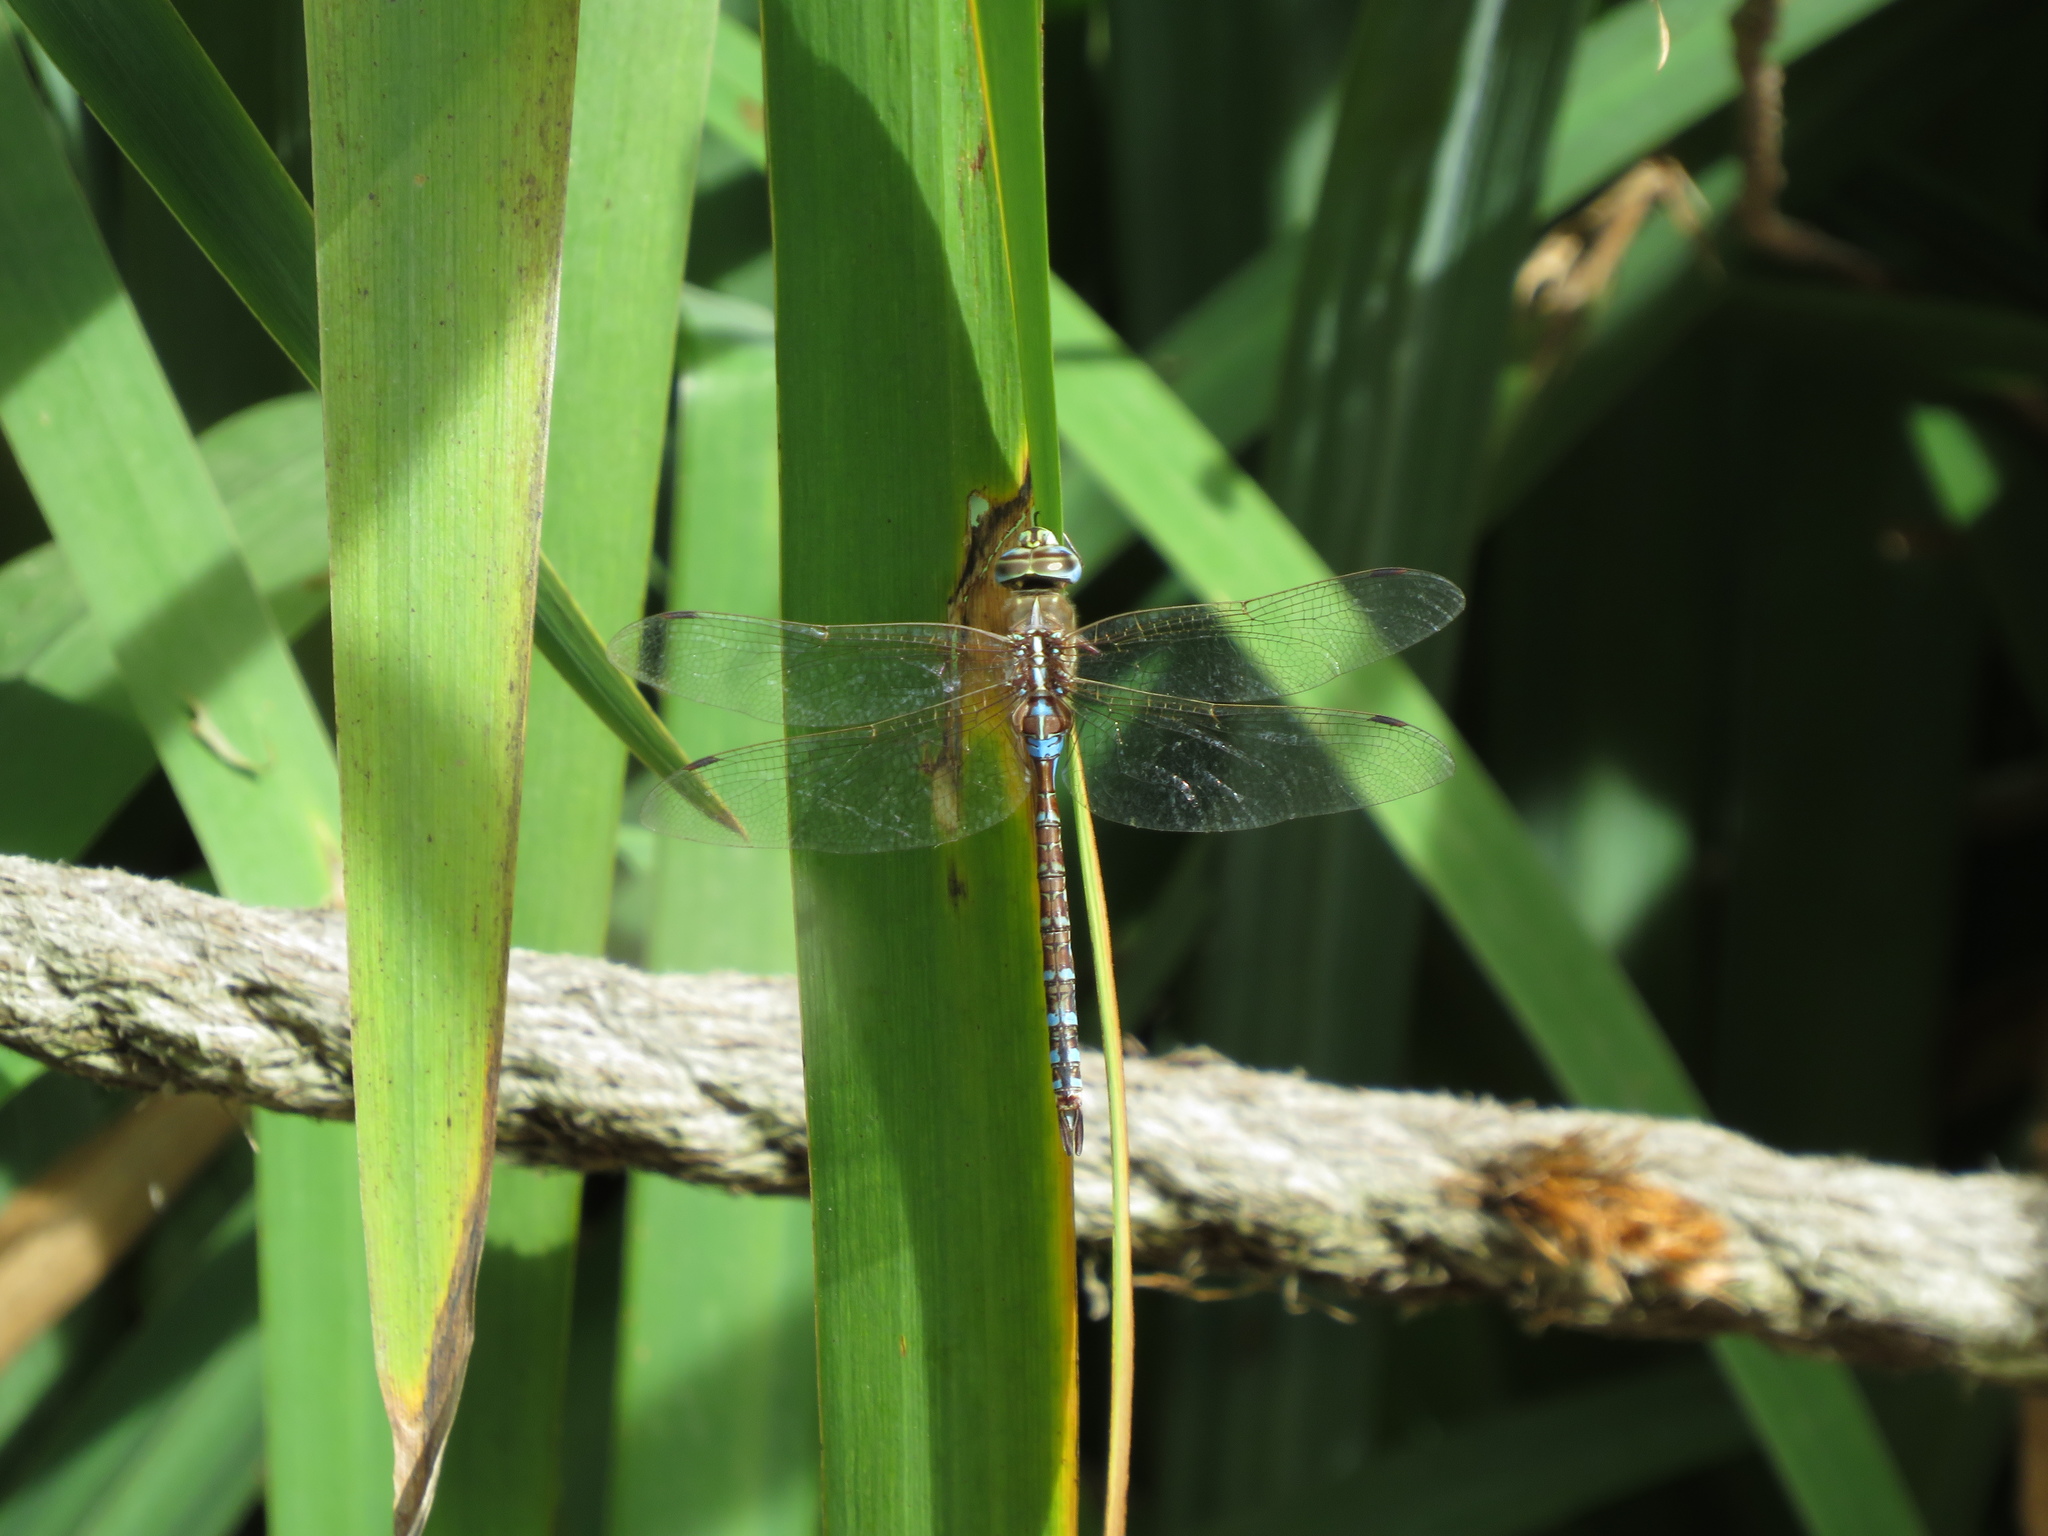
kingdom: Animalia
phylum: Arthropoda
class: Insecta
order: Odonata
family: Aeshnidae
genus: Rhionaeschna
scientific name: Rhionaeschna bonariensis
